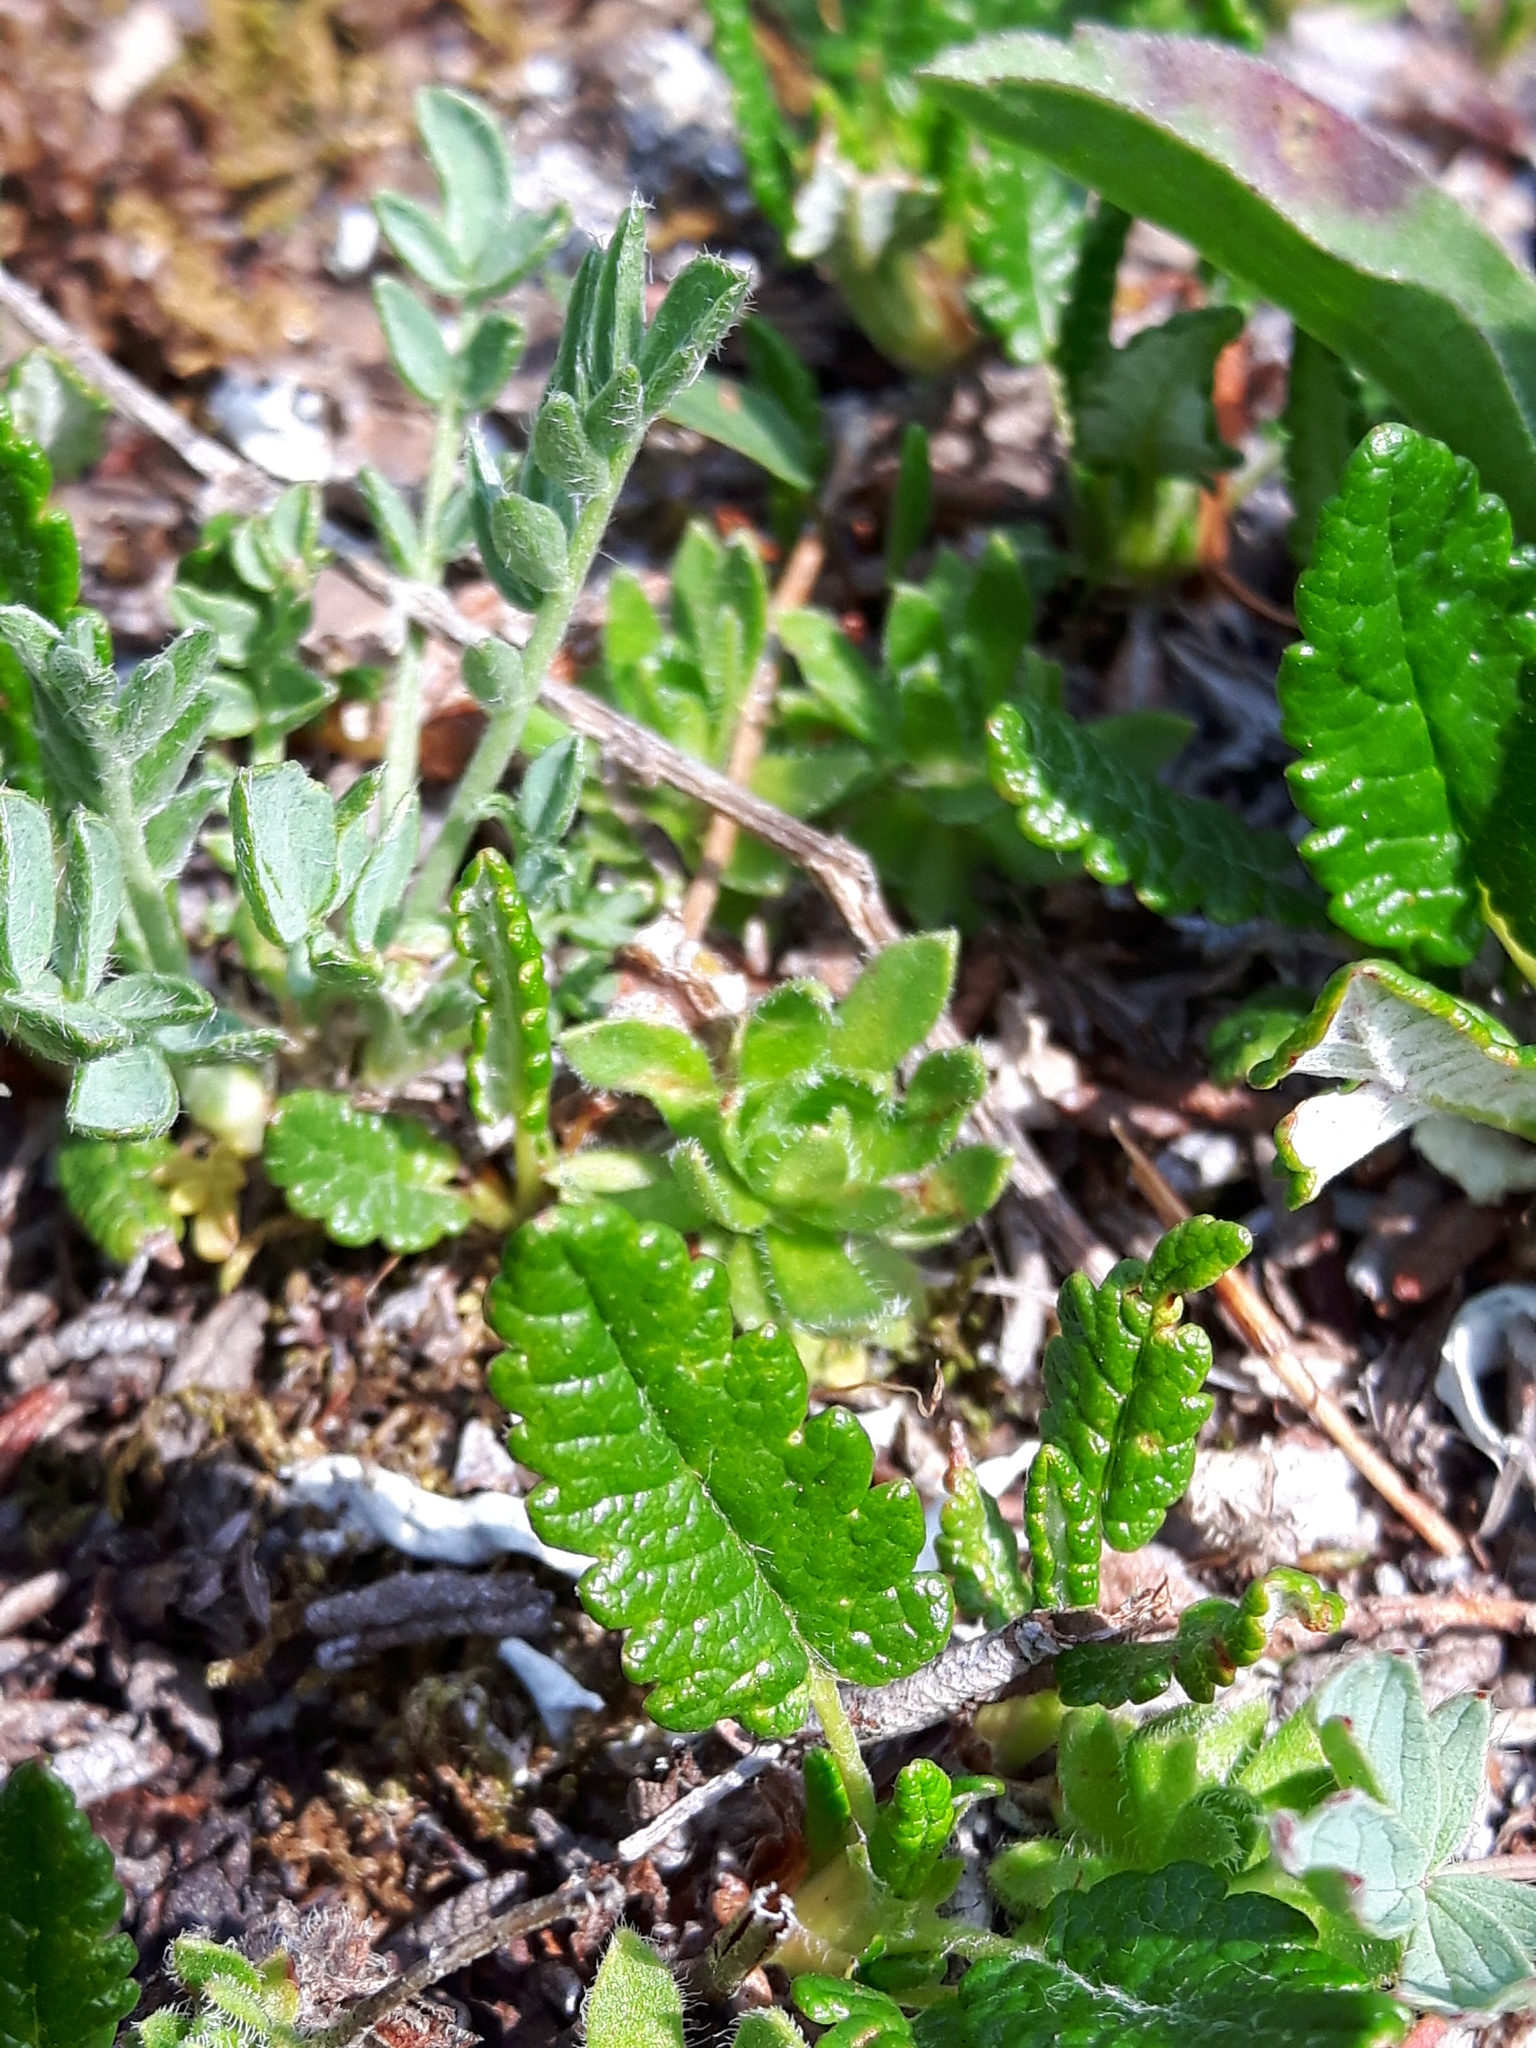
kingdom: Plantae
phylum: Tracheophyta
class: Magnoliopsida
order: Rosales
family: Rosaceae
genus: Dryas
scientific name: Dryas octopetala
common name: Eight-petal mountain-avens
